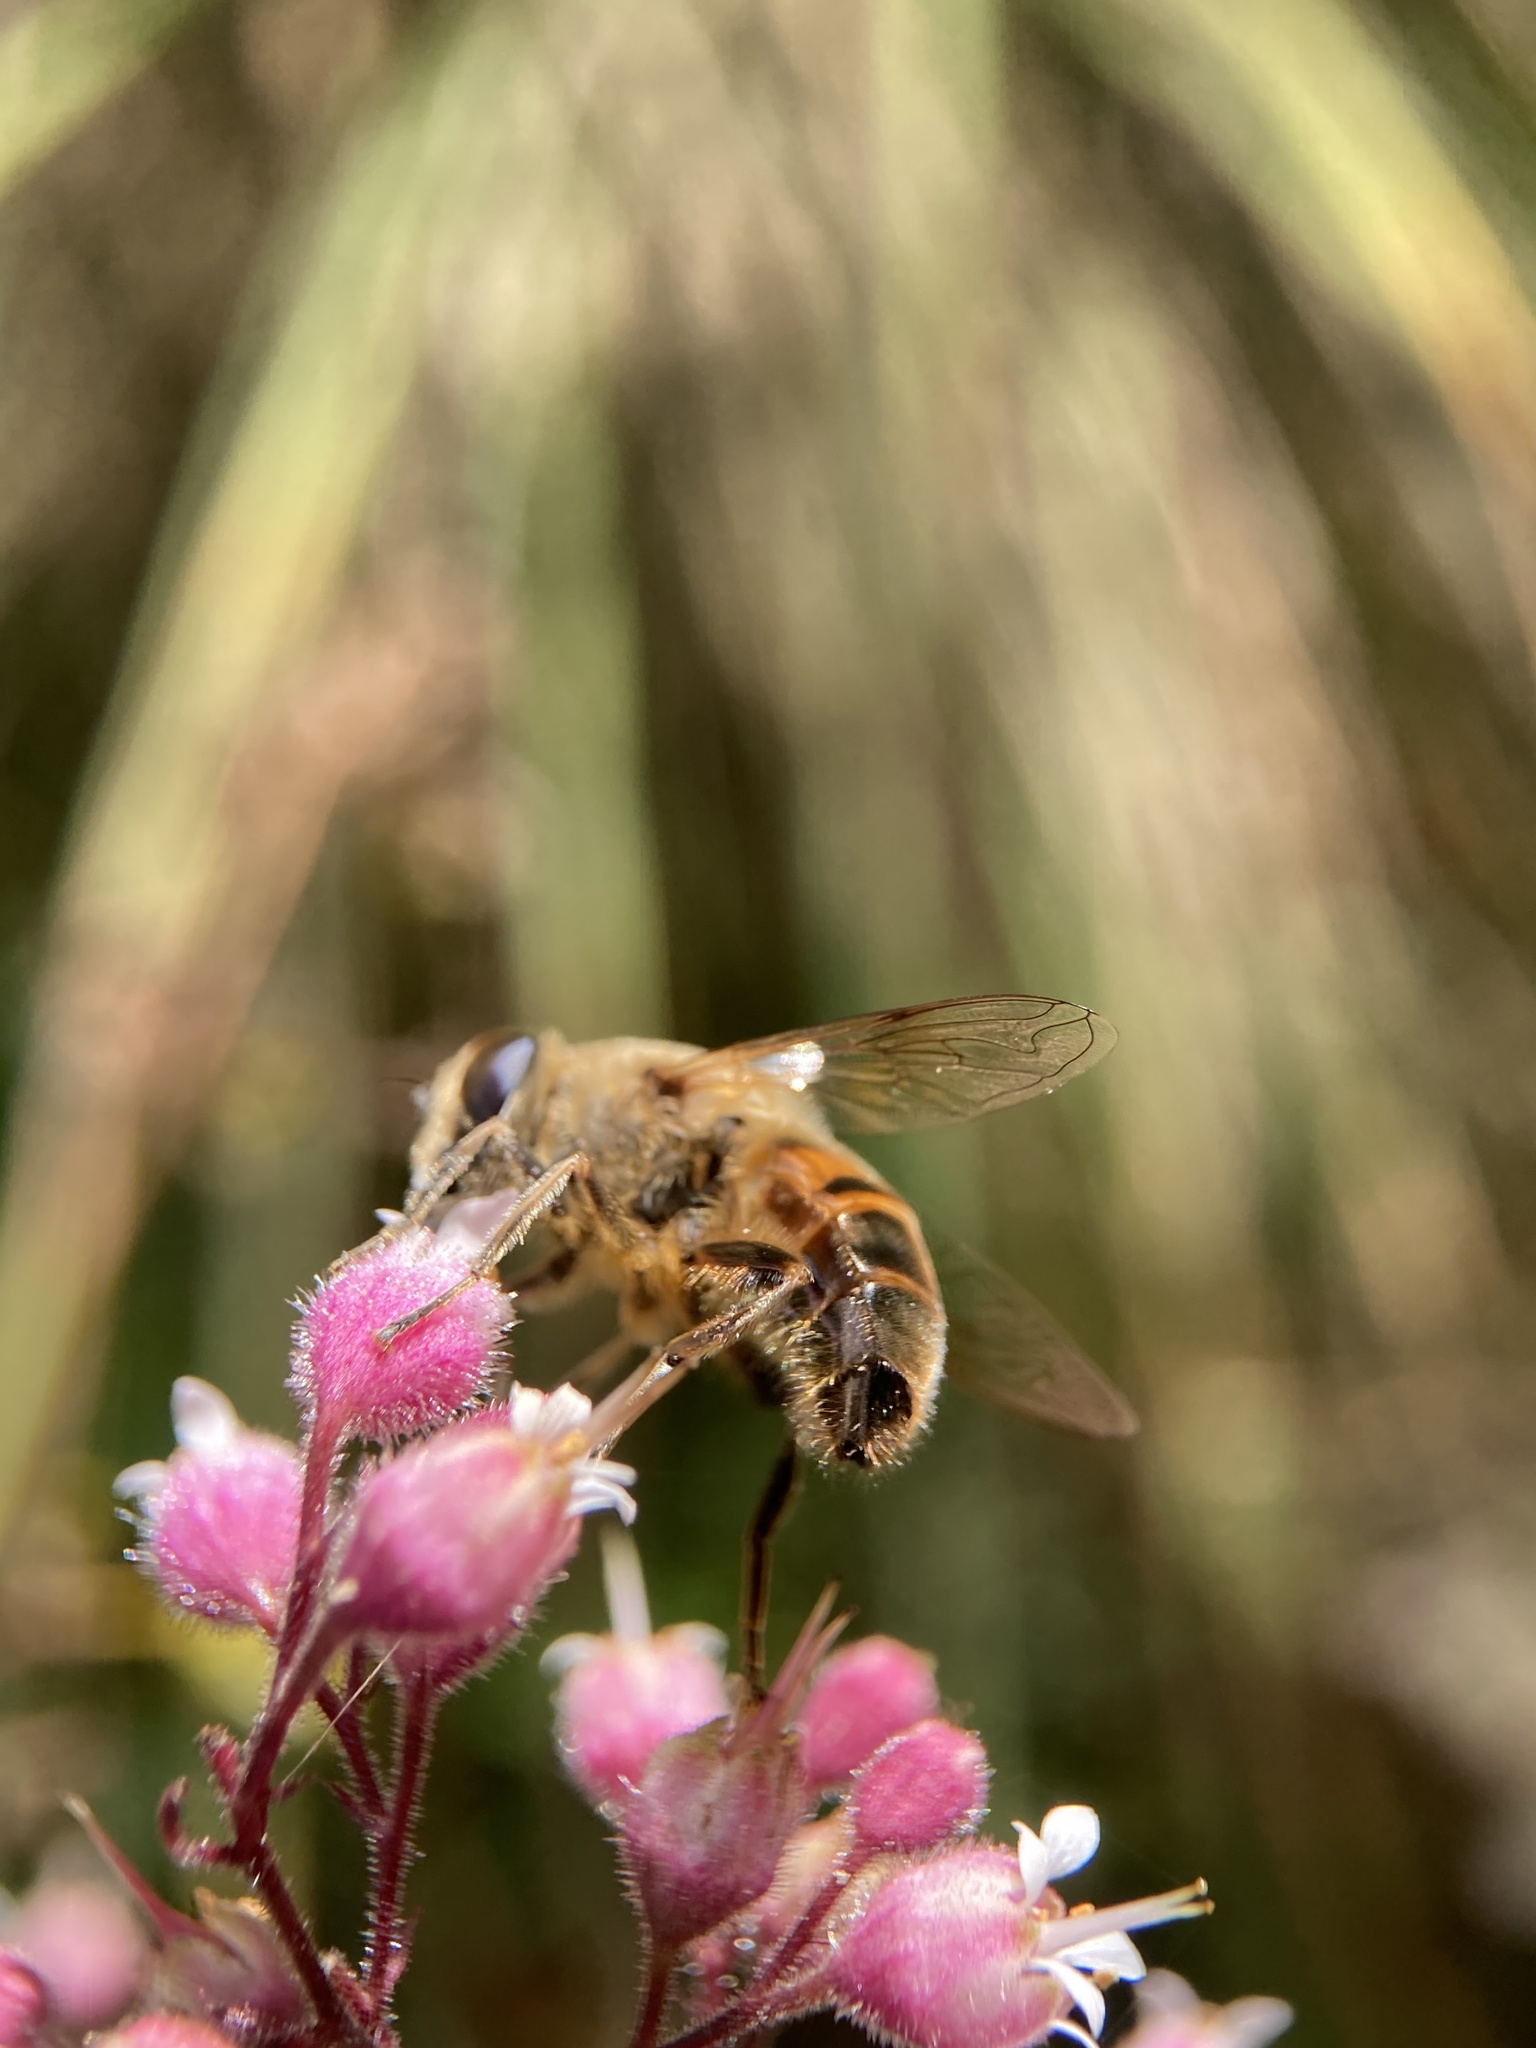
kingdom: Animalia
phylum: Arthropoda
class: Insecta
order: Diptera
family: Syrphidae
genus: Eristalis
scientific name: Eristalis tenax
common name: Drone fly
